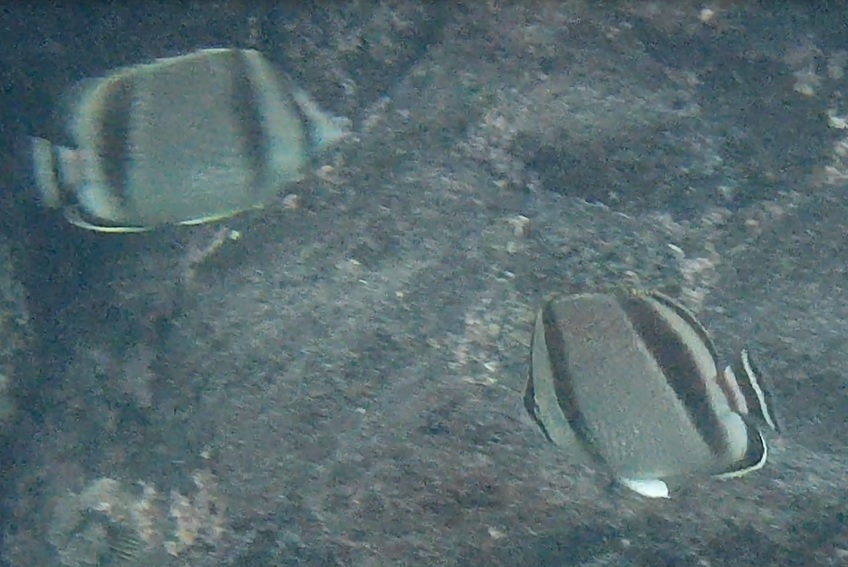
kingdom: Animalia
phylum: Chordata
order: Perciformes
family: Chaetodontidae
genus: Chaetodon
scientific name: Chaetodon humeralis
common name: Threebanded butterflyfish
